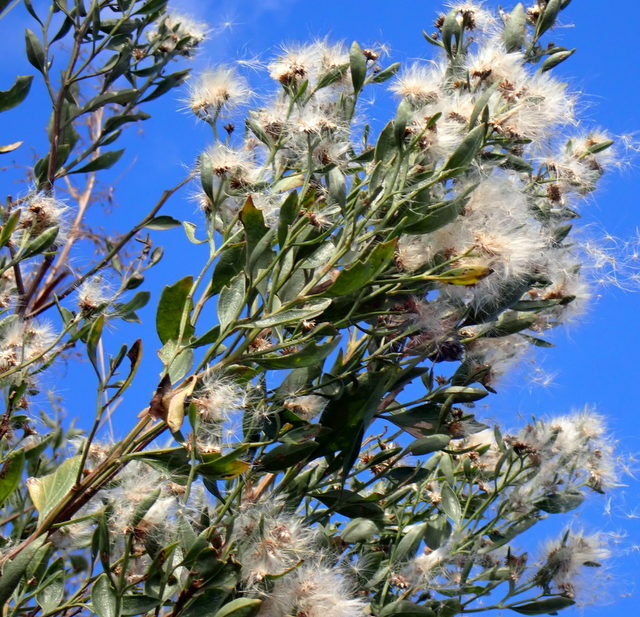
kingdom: Plantae
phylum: Tracheophyta
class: Magnoliopsida
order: Asterales
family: Asteraceae
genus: Baccharis
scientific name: Baccharis halimifolia
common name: Eastern baccharis
